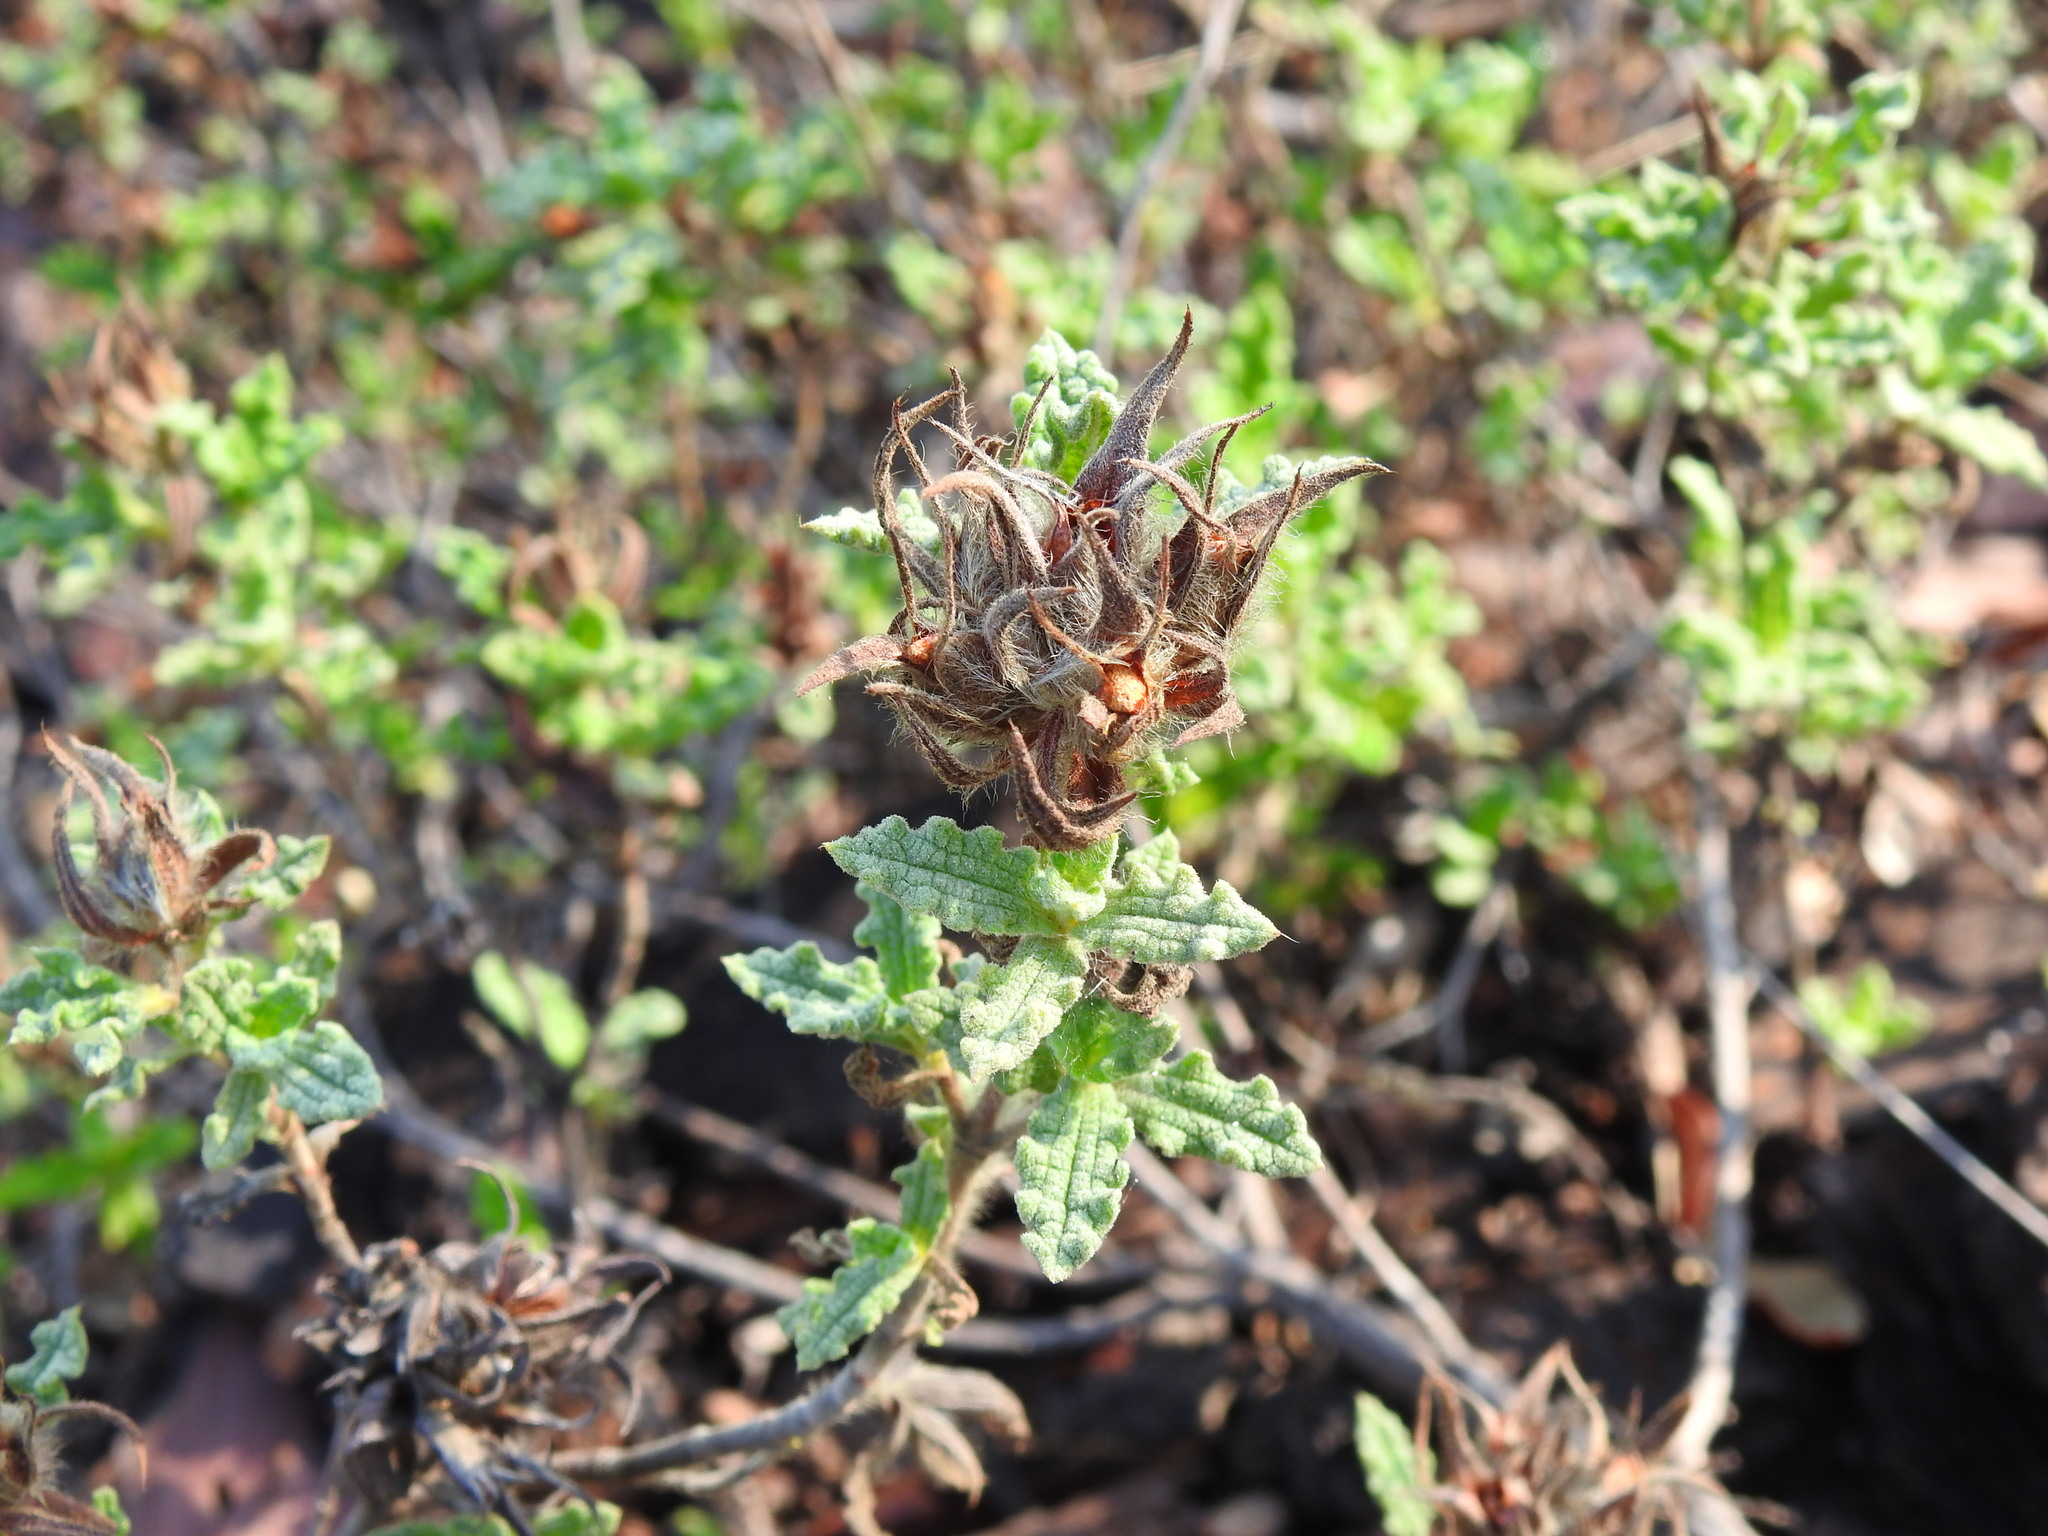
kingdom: Plantae
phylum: Tracheophyta
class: Magnoliopsida
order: Malvales
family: Cistaceae
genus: Cistus
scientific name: Cistus crispus
